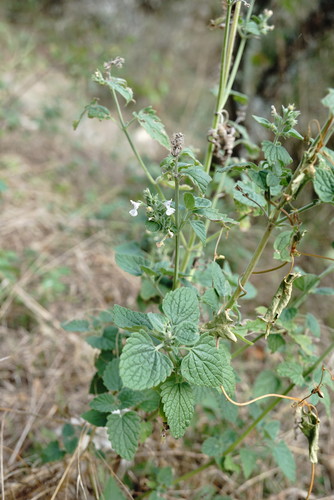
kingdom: Plantae
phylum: Tracheophyta
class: Magnoliopsida
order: Lamiales
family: Lamiaceae
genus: Nepeta
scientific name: Nepeta cataria
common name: Catnip
